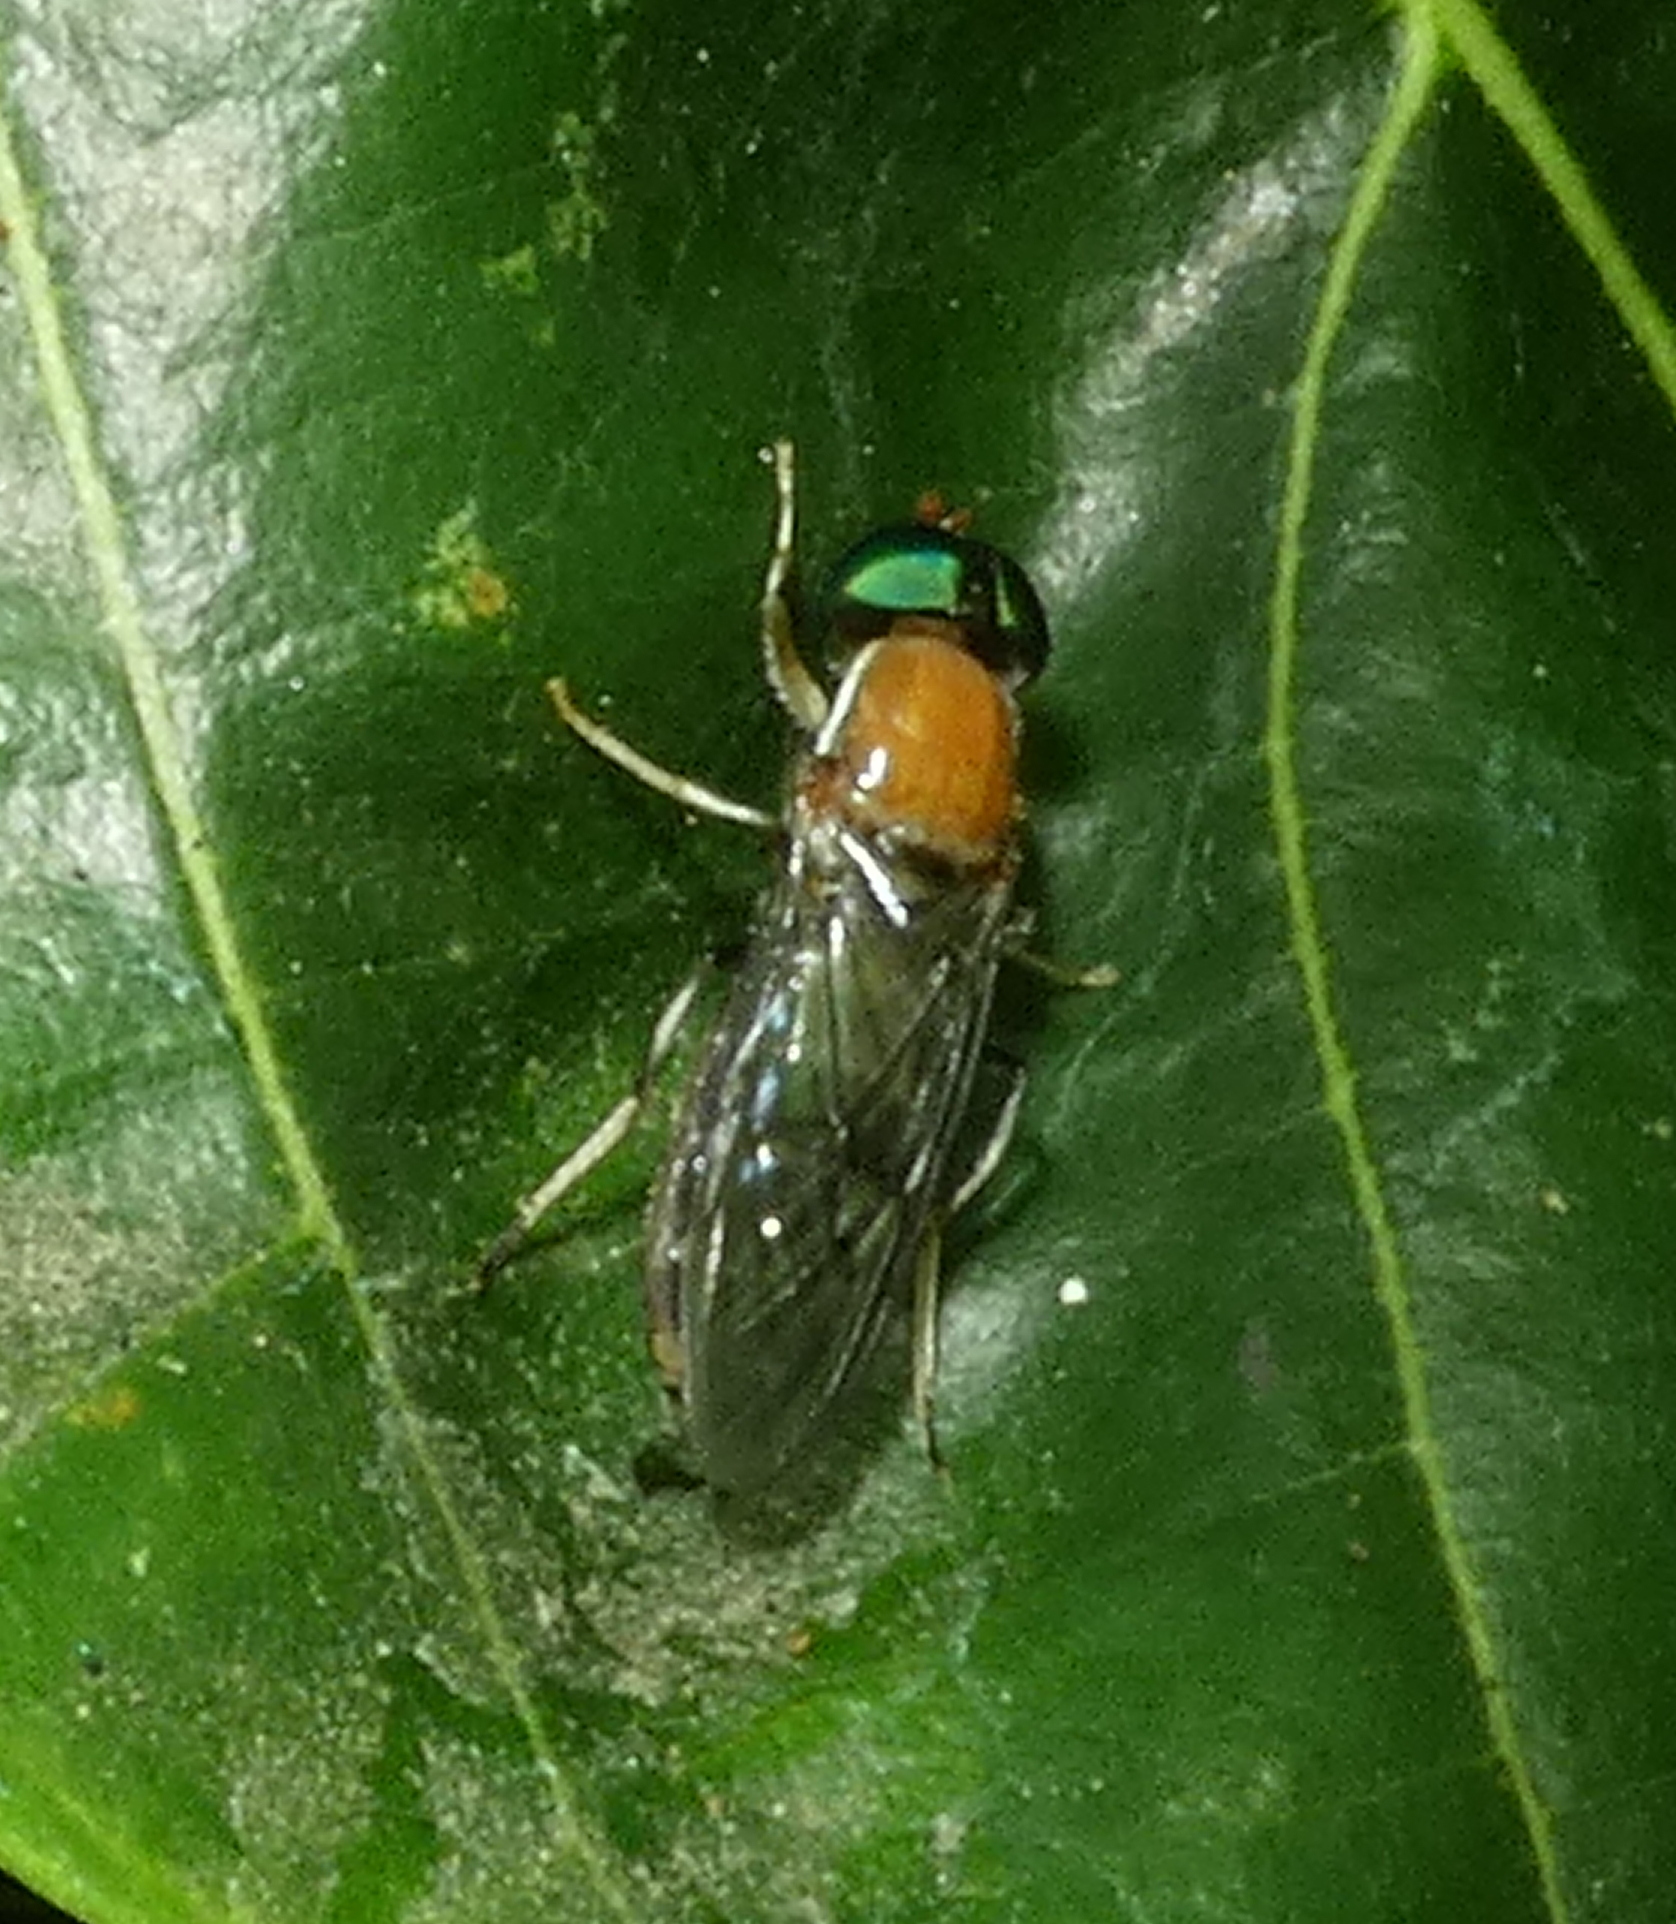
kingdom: Animalia
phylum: Arthropoda
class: Insecta
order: Diptera
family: Stratiomyidae
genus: Sargus
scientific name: Sargus thoracicus
